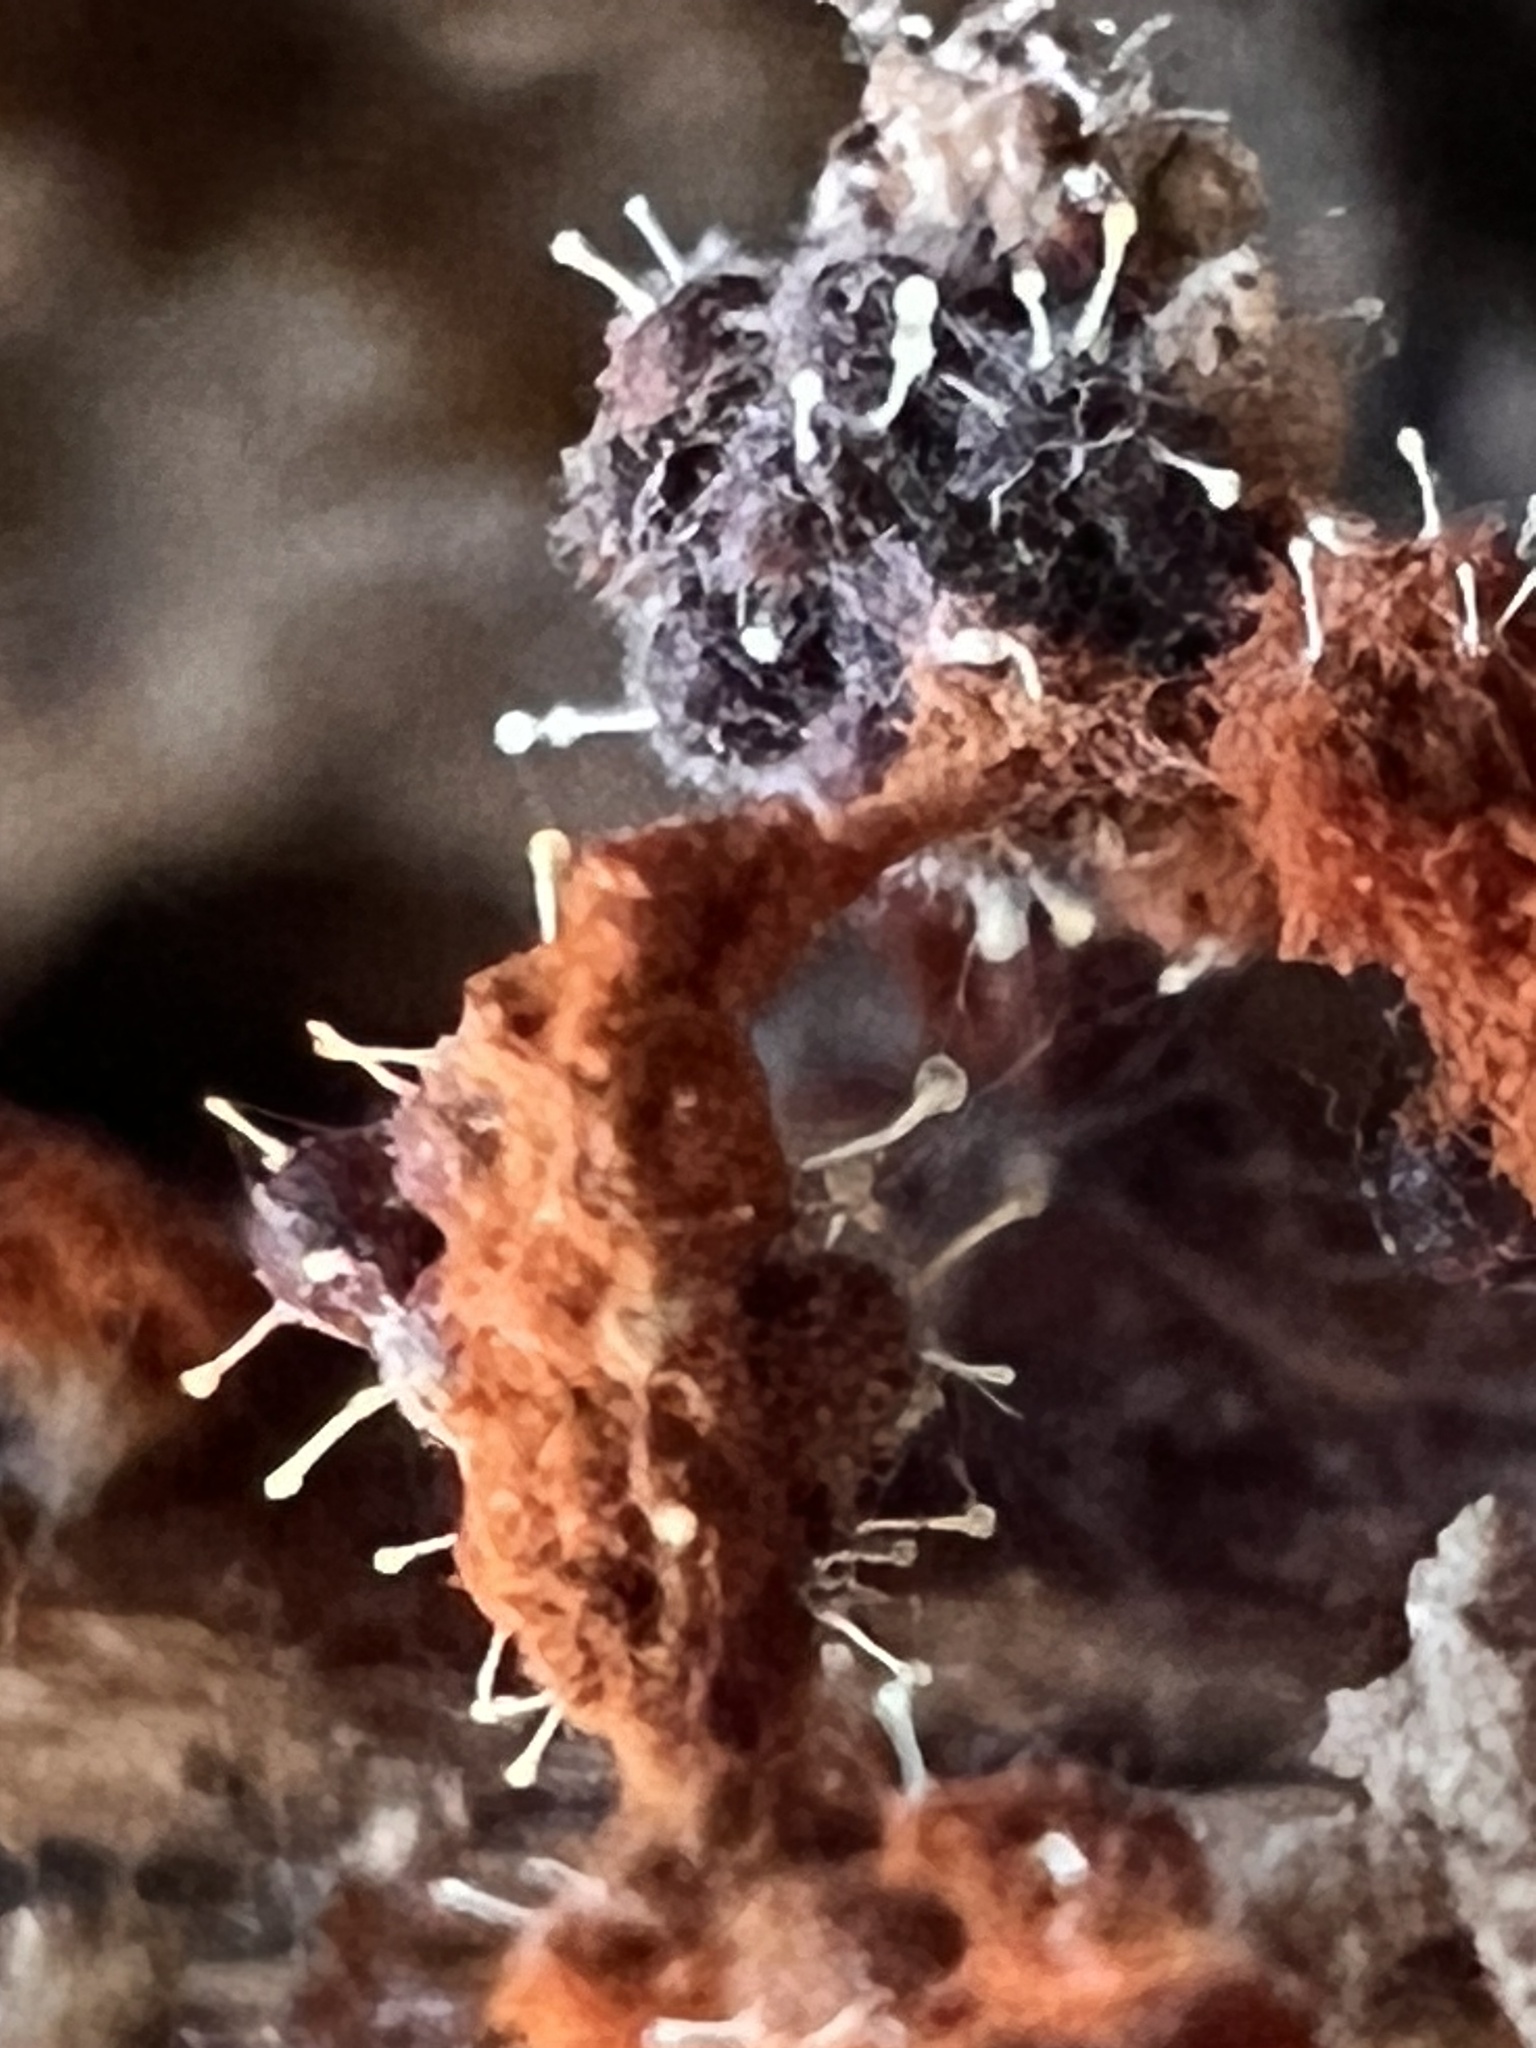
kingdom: Fungi
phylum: Ascomycota
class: Sordariomycetes
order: Hypocreales
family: Ophiocordycipitaceae
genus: Polycephalomyces
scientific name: Polycephalomyces tomentosus
